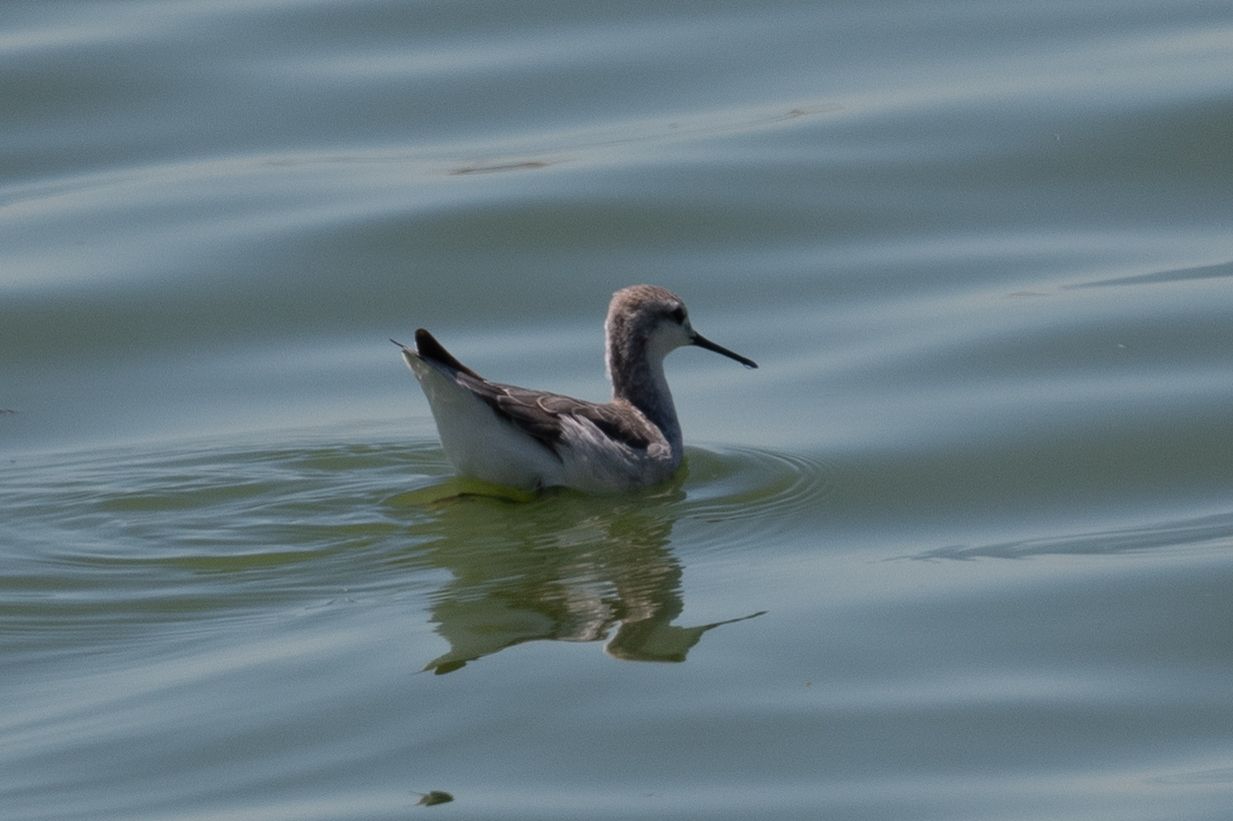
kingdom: Animalia
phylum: Chordata
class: Aves
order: Charadriiformes
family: Scolopacidae
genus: Phalaropus
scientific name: Phalaropus tricolor
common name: Wilson's phalarope
